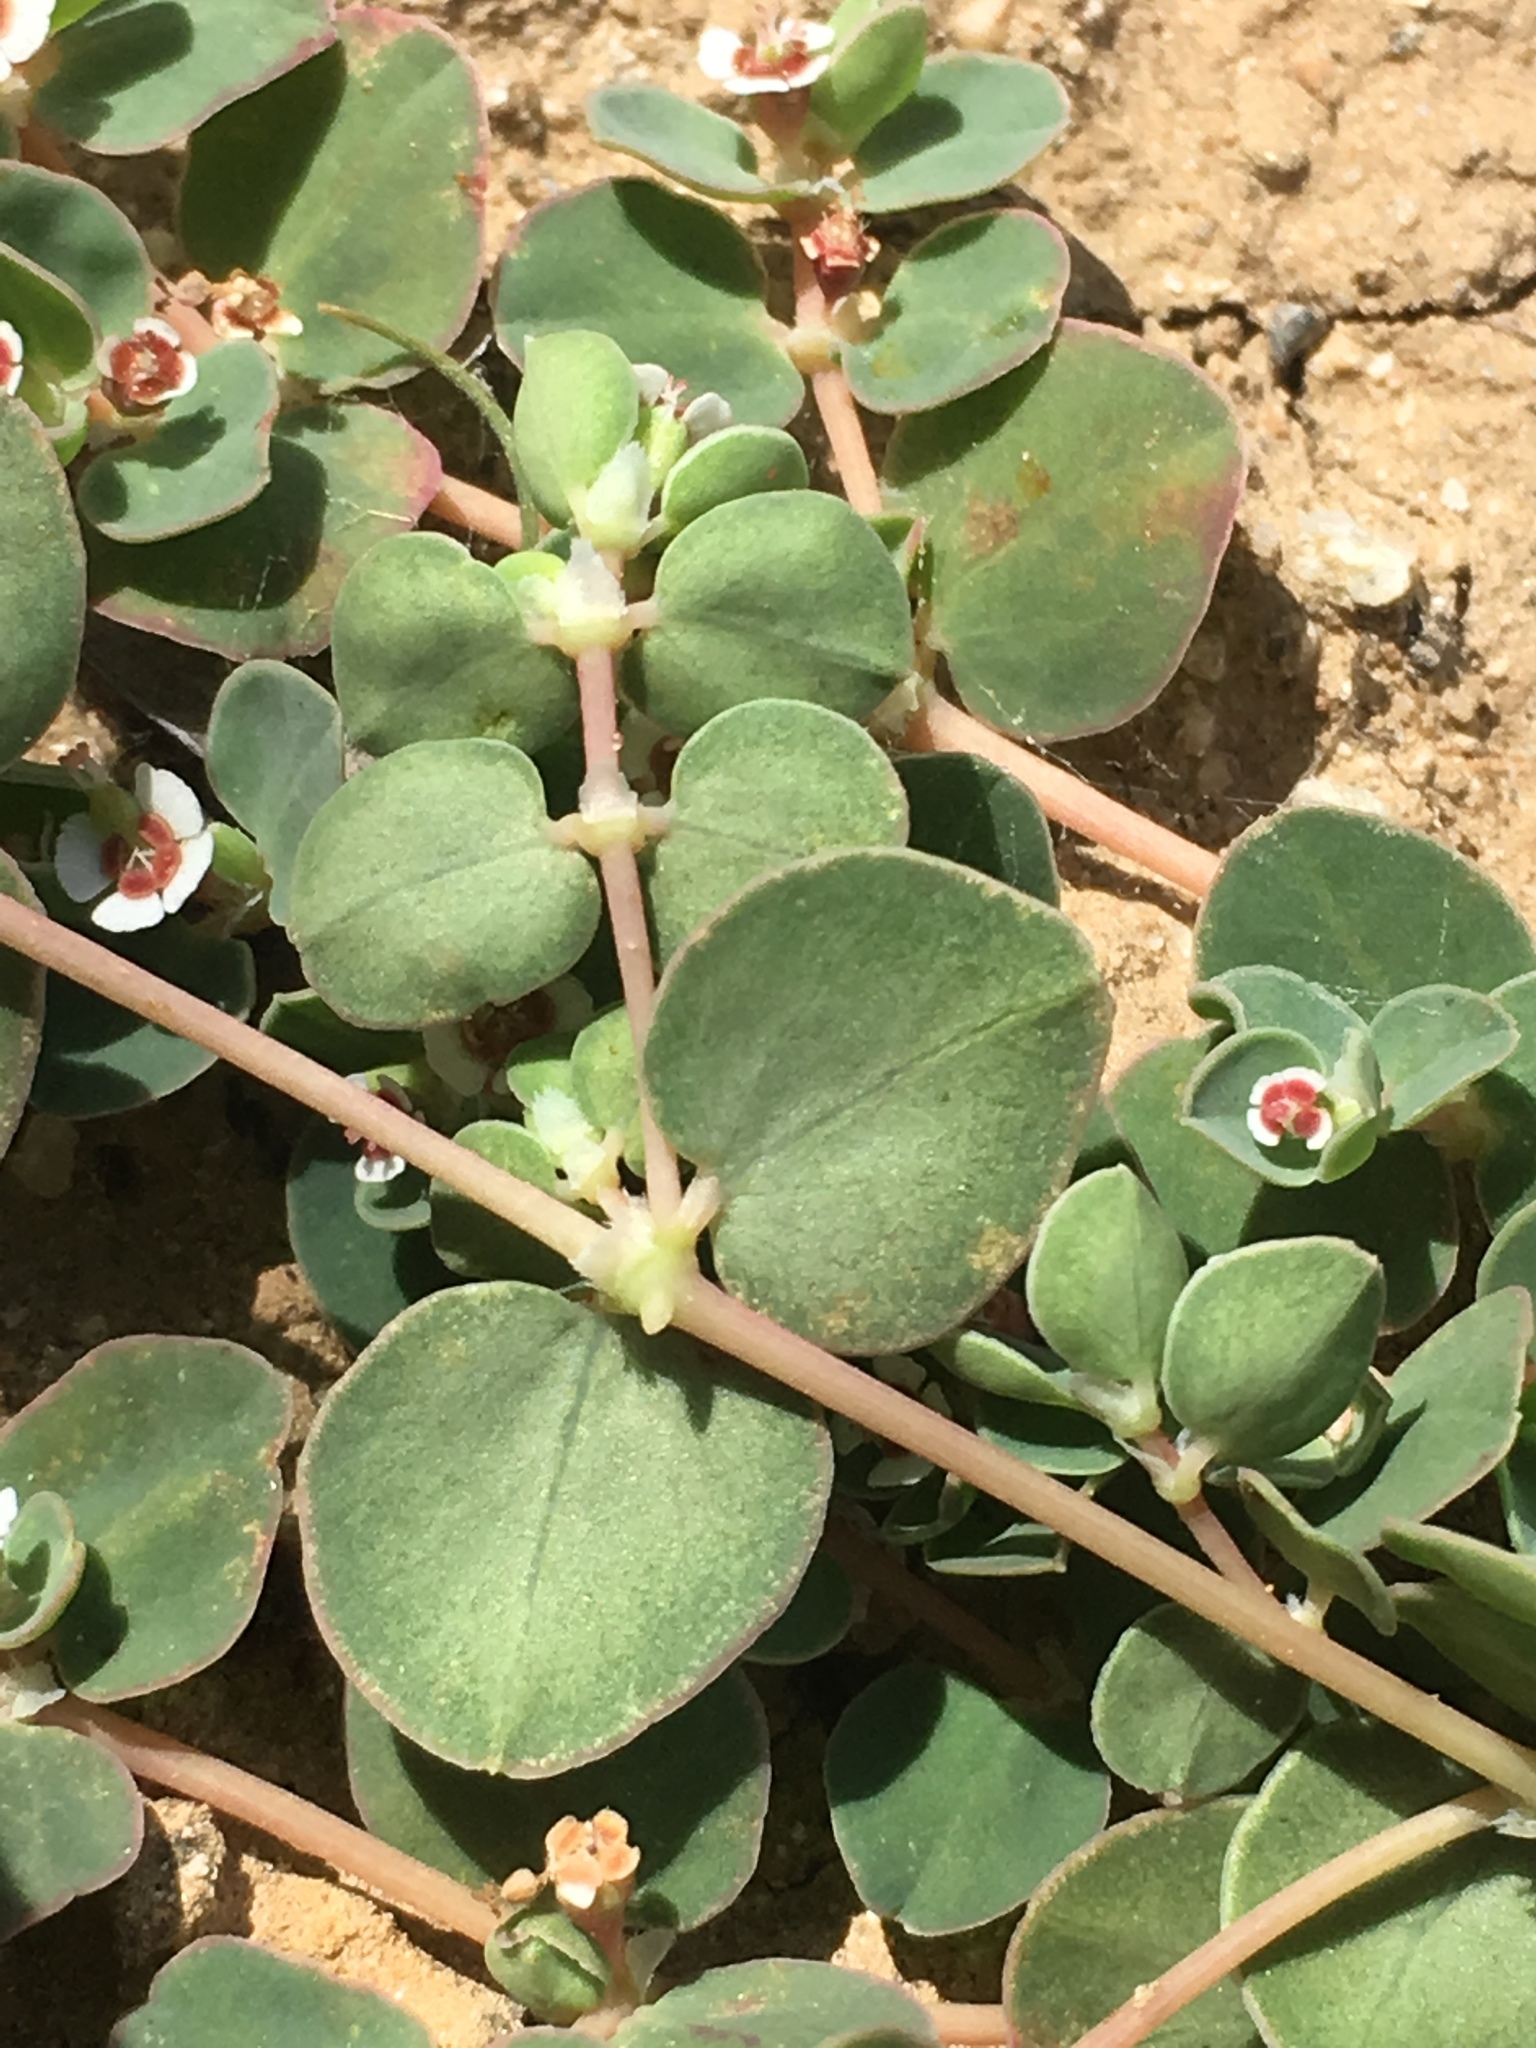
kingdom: Plantae
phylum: Tracheophyta
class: Magnoliopsida
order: Malpighiales
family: Euphorbiaceae
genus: Euphorbia
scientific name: Euphorbia albomarginata
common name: Whitemargin sandmat
